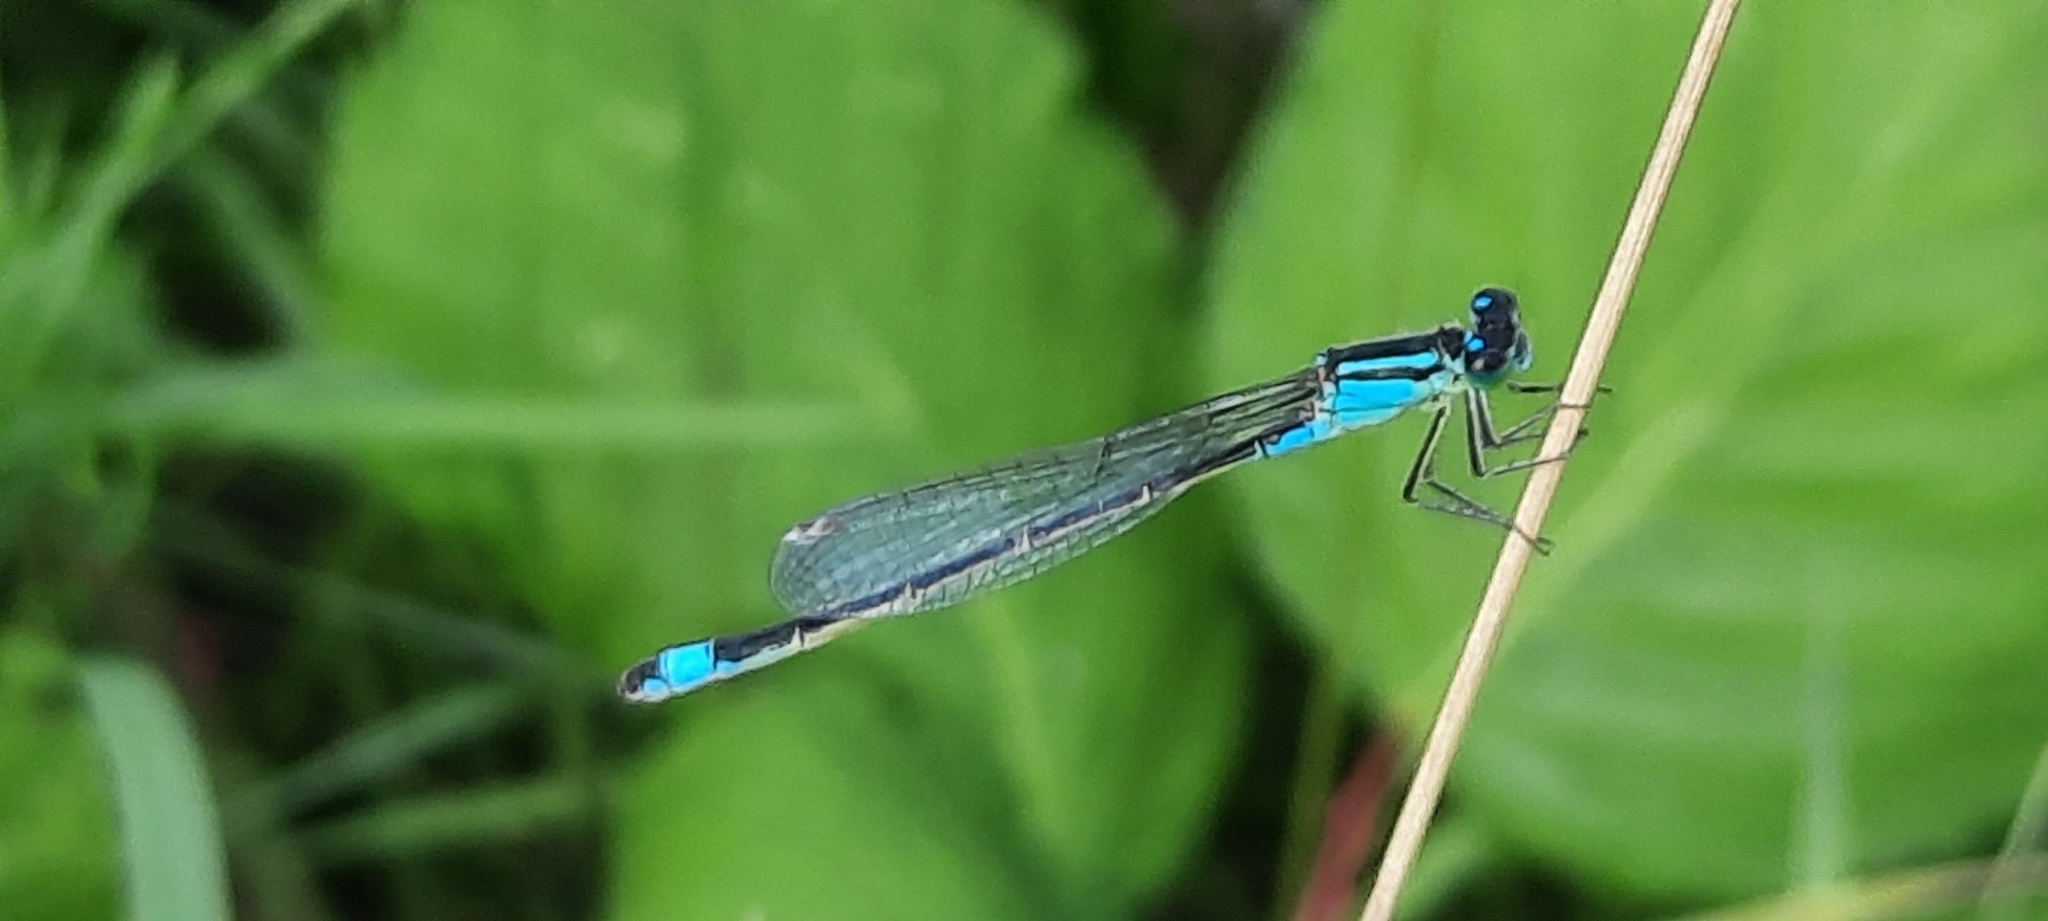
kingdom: Animalia
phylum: Arthropoda
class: Insecta
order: Odonata
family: Coenagrionidae
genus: Ischnura
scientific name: Ischnura elegans
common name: Blue-tailed damselfly
